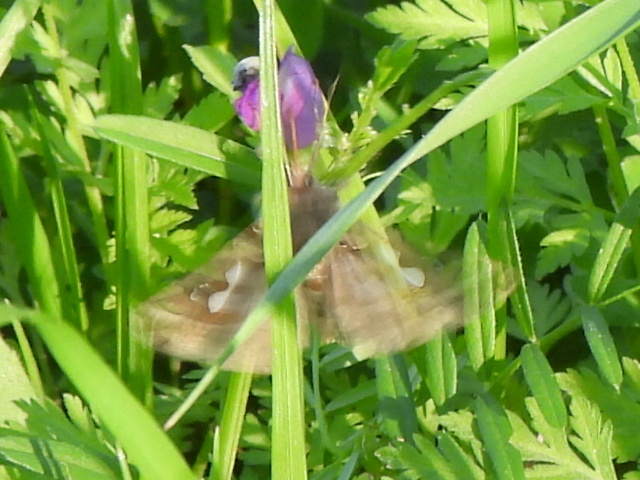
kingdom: Animalia
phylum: Arthropoda
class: Insecta
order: Lepidoptera
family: Noctuidae
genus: Megalographa
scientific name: Megalographa biloba
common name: Cutworm
